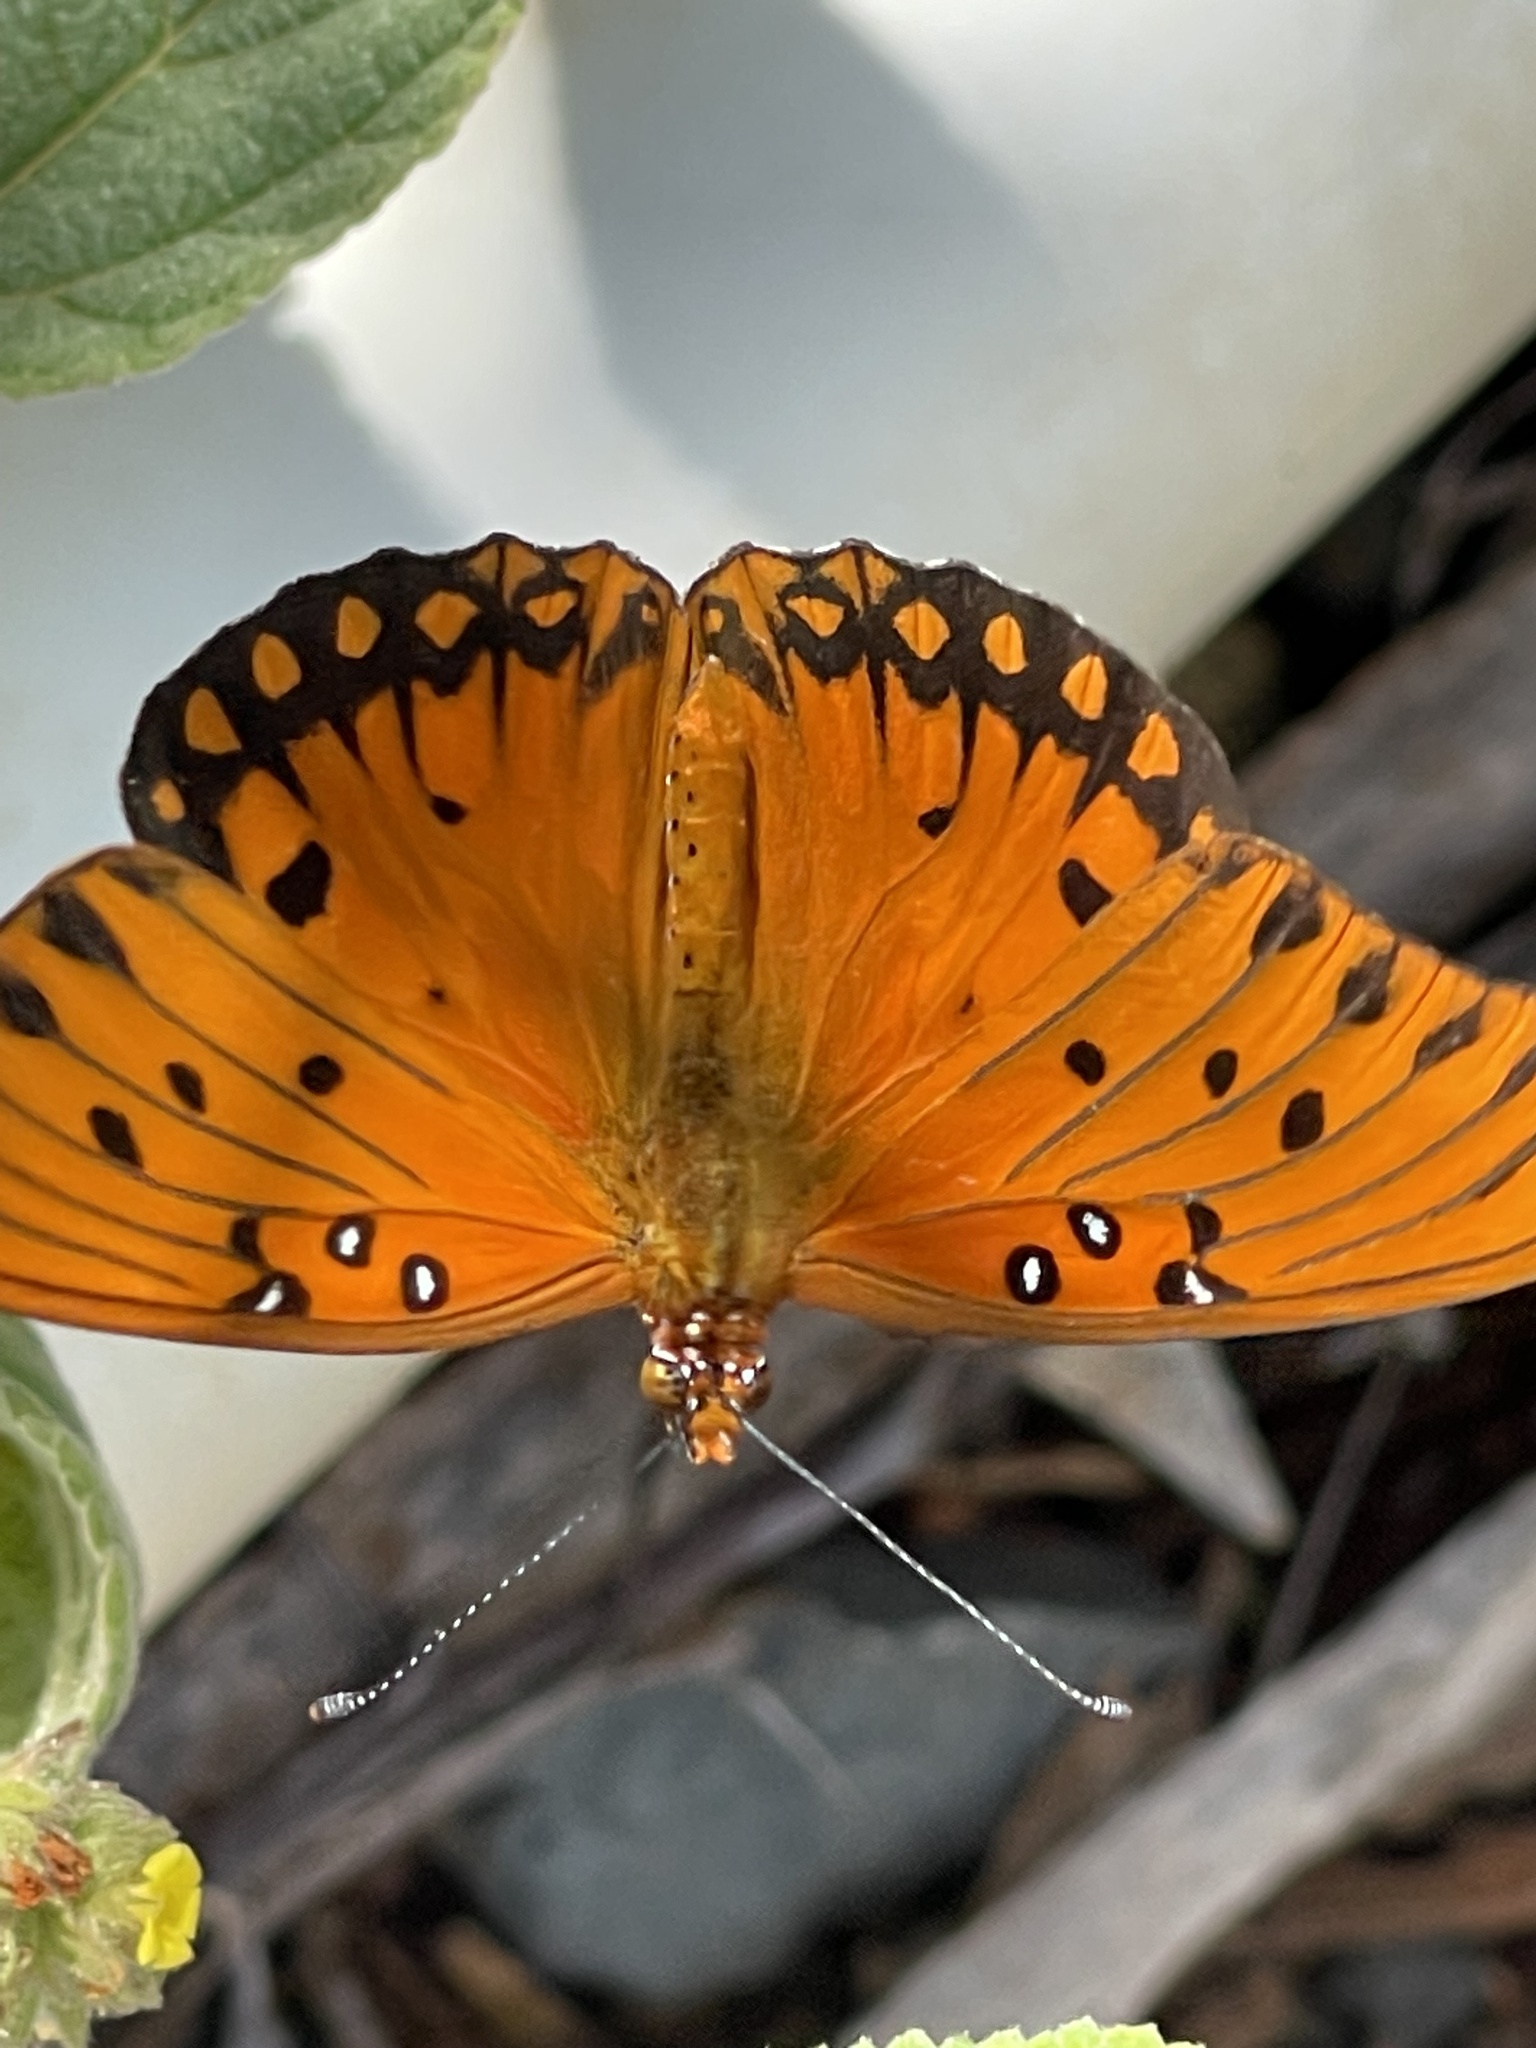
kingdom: Animalia
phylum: Arthropoda
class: Insecta
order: Lepidoptera
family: Nymphalidae
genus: Dione
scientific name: Dione vanillae
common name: Gulf fritillary
